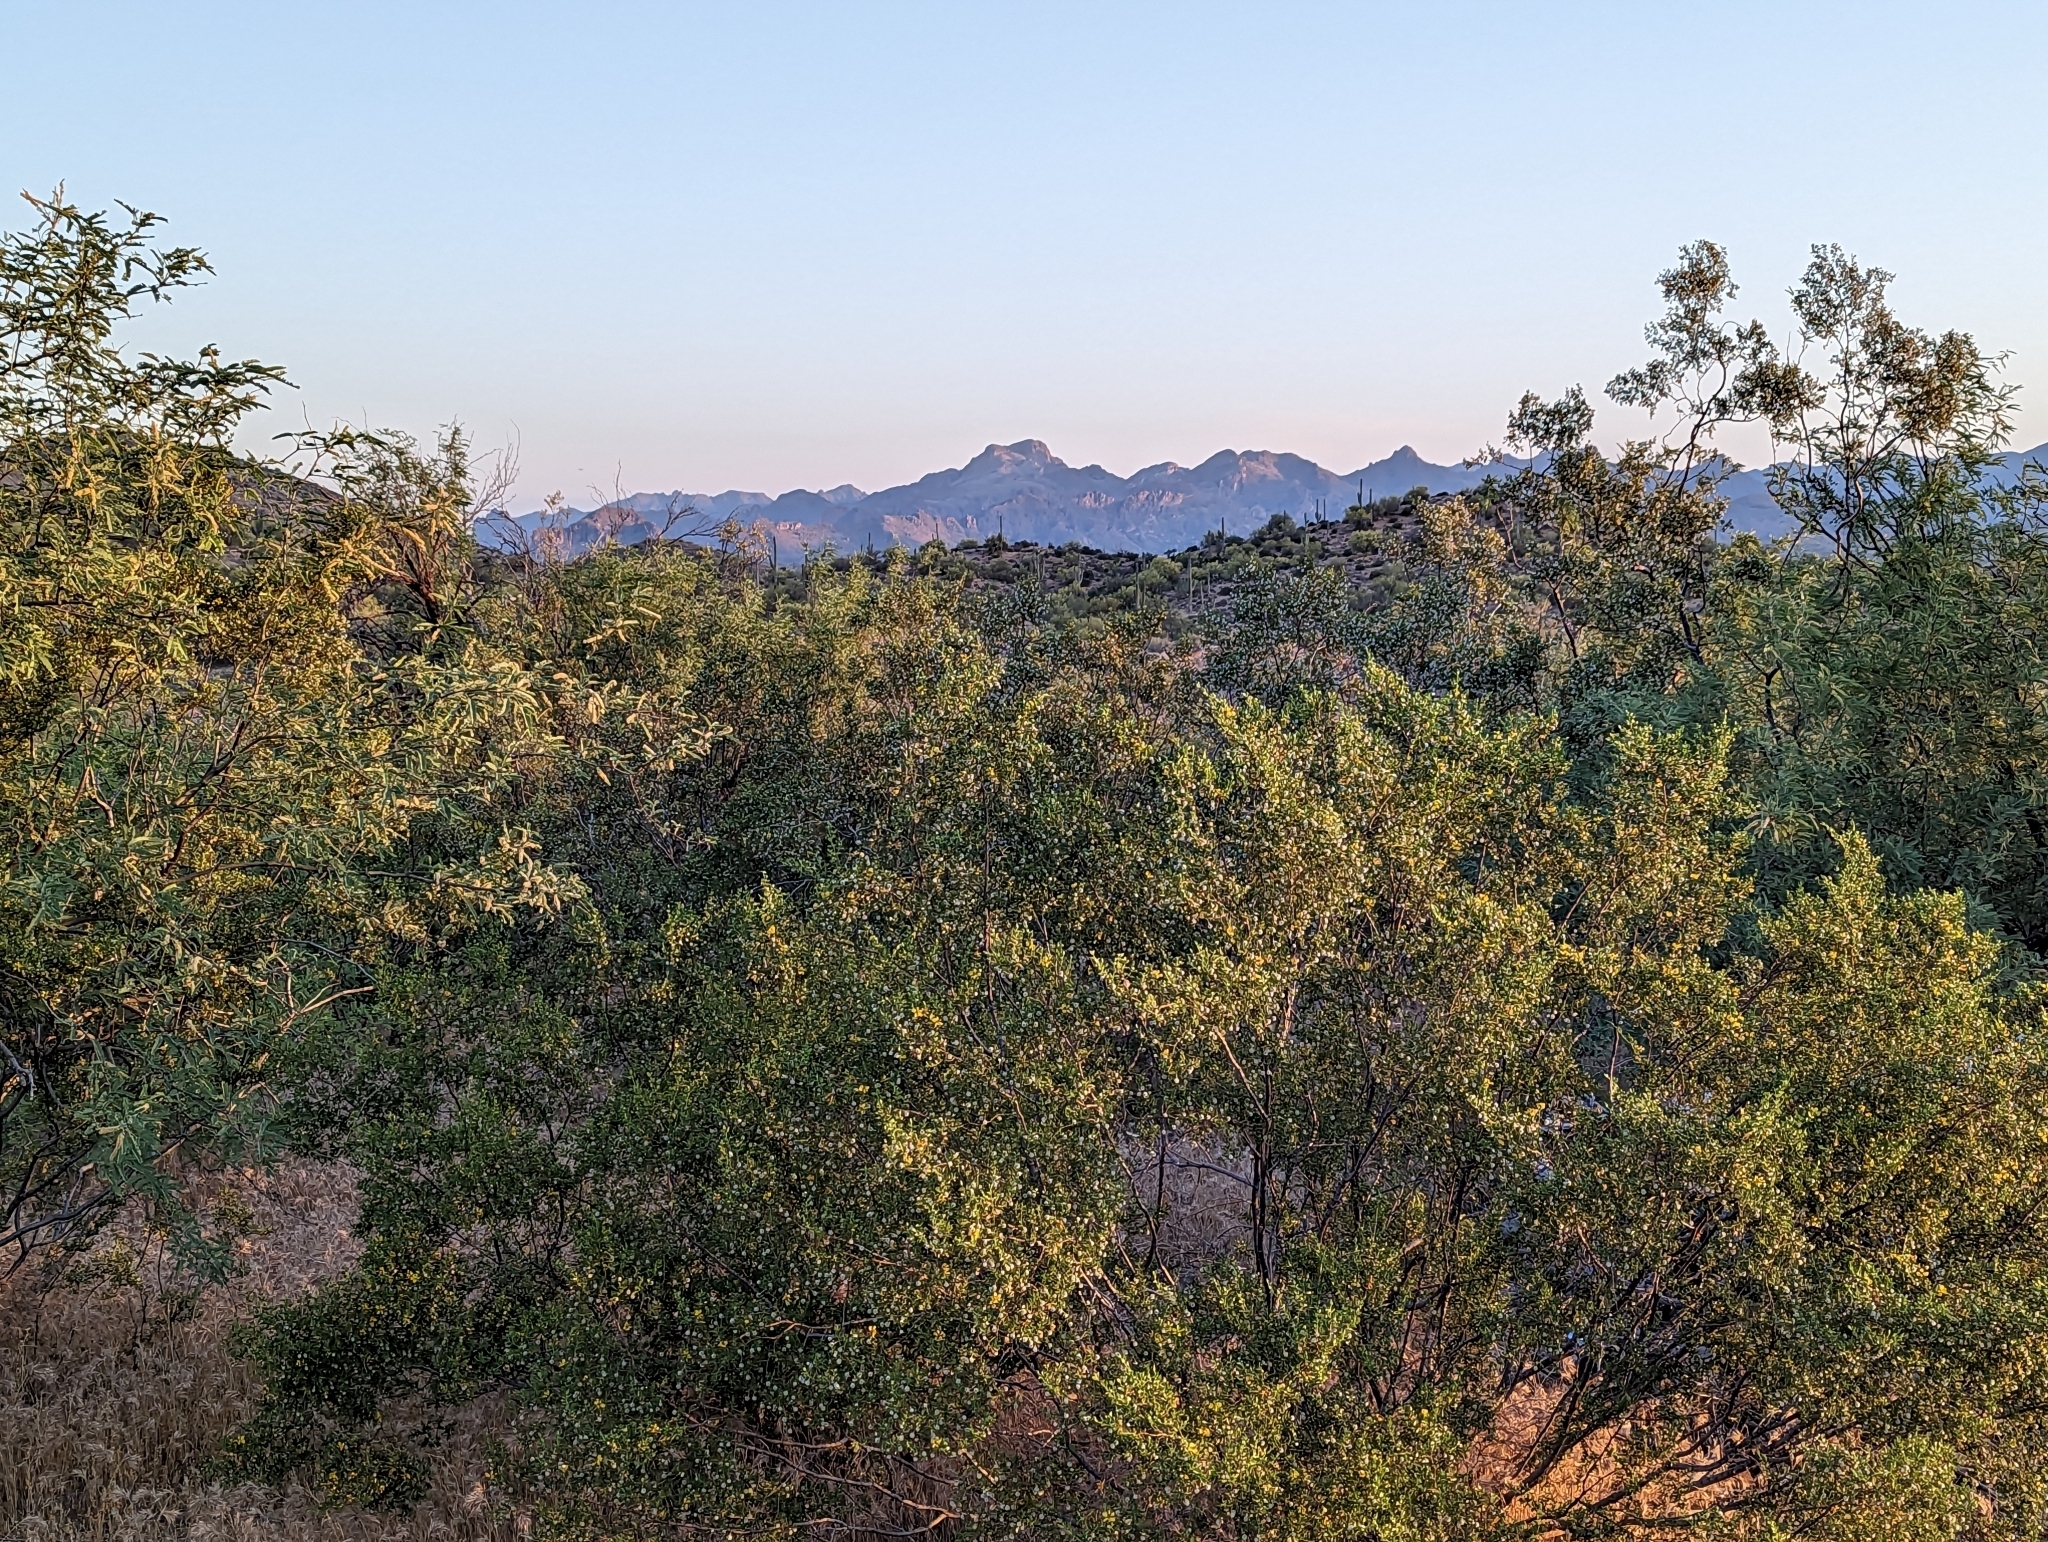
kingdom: Plantae
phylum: Tracheophyta
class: Magnoliopsida
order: Zygophyllales
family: Zygophyllaceae
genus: Larrea
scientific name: Larrea tridentata
